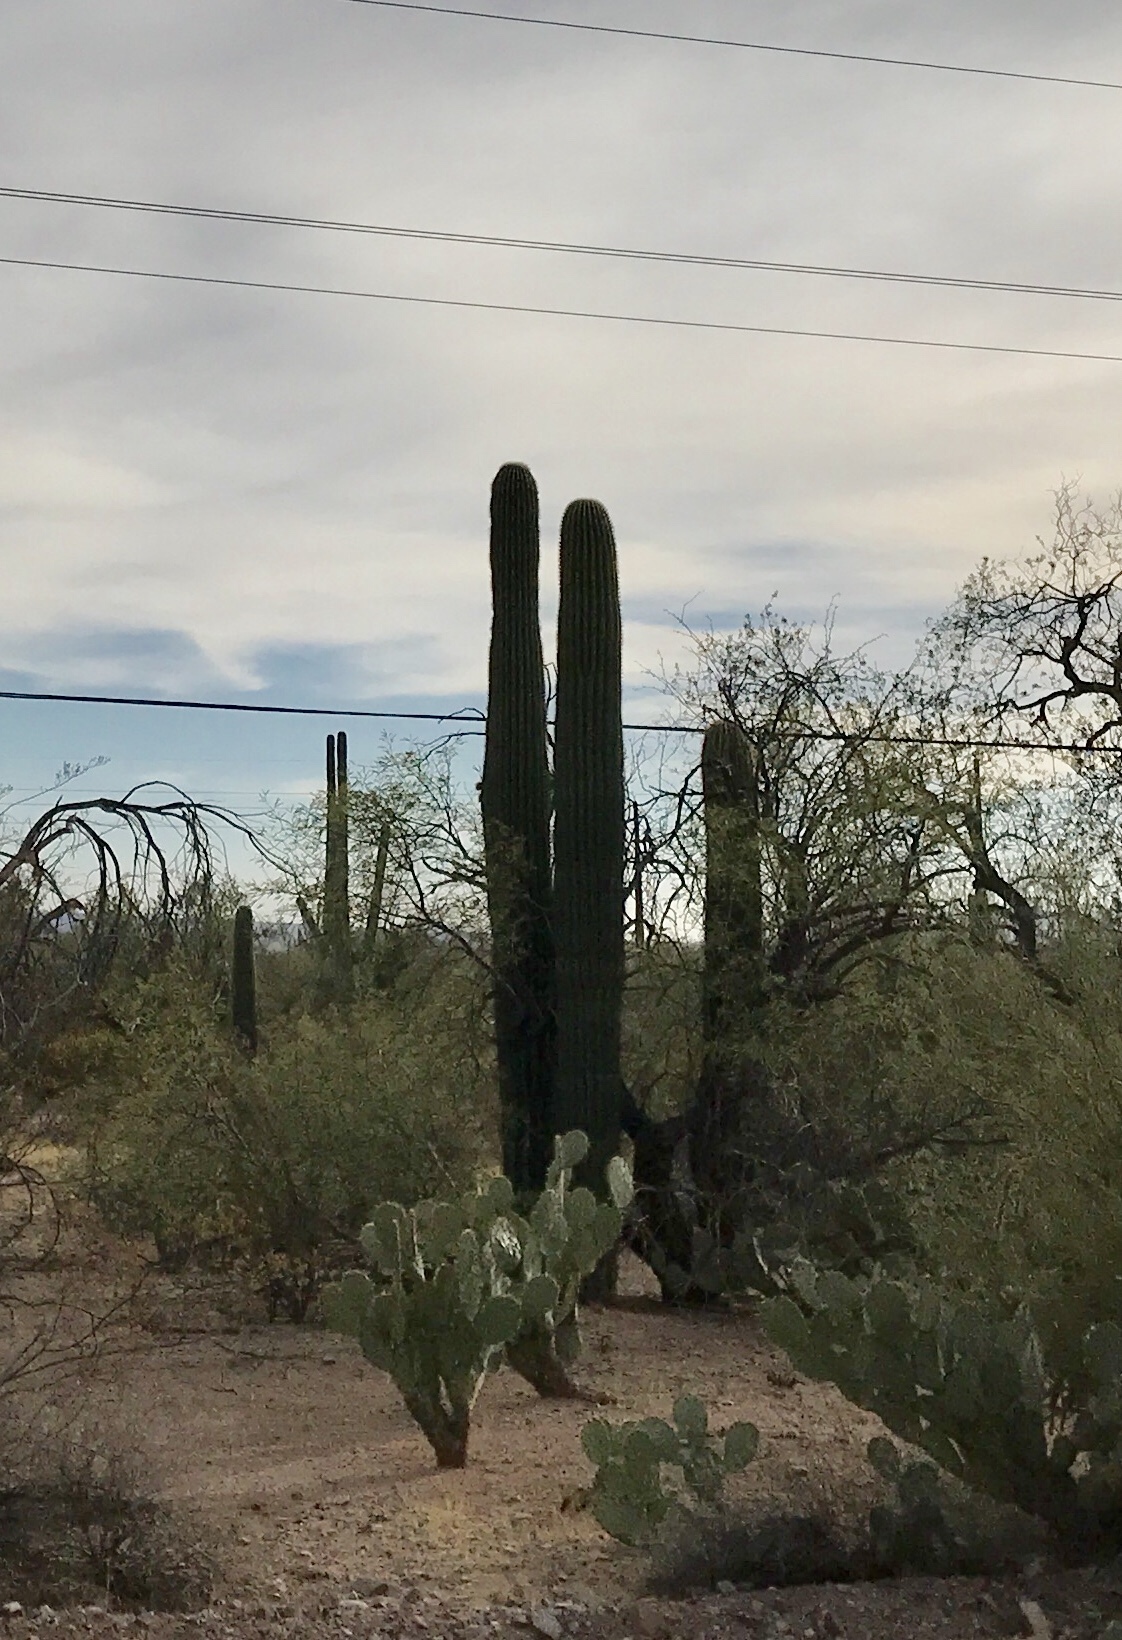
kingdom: Plantae
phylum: Tracheophyta
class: Magnoliopsida
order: Caryophyllales
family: Cactaceae
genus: Carnegiea
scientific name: Carnegiea gigantea
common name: Saguaro
